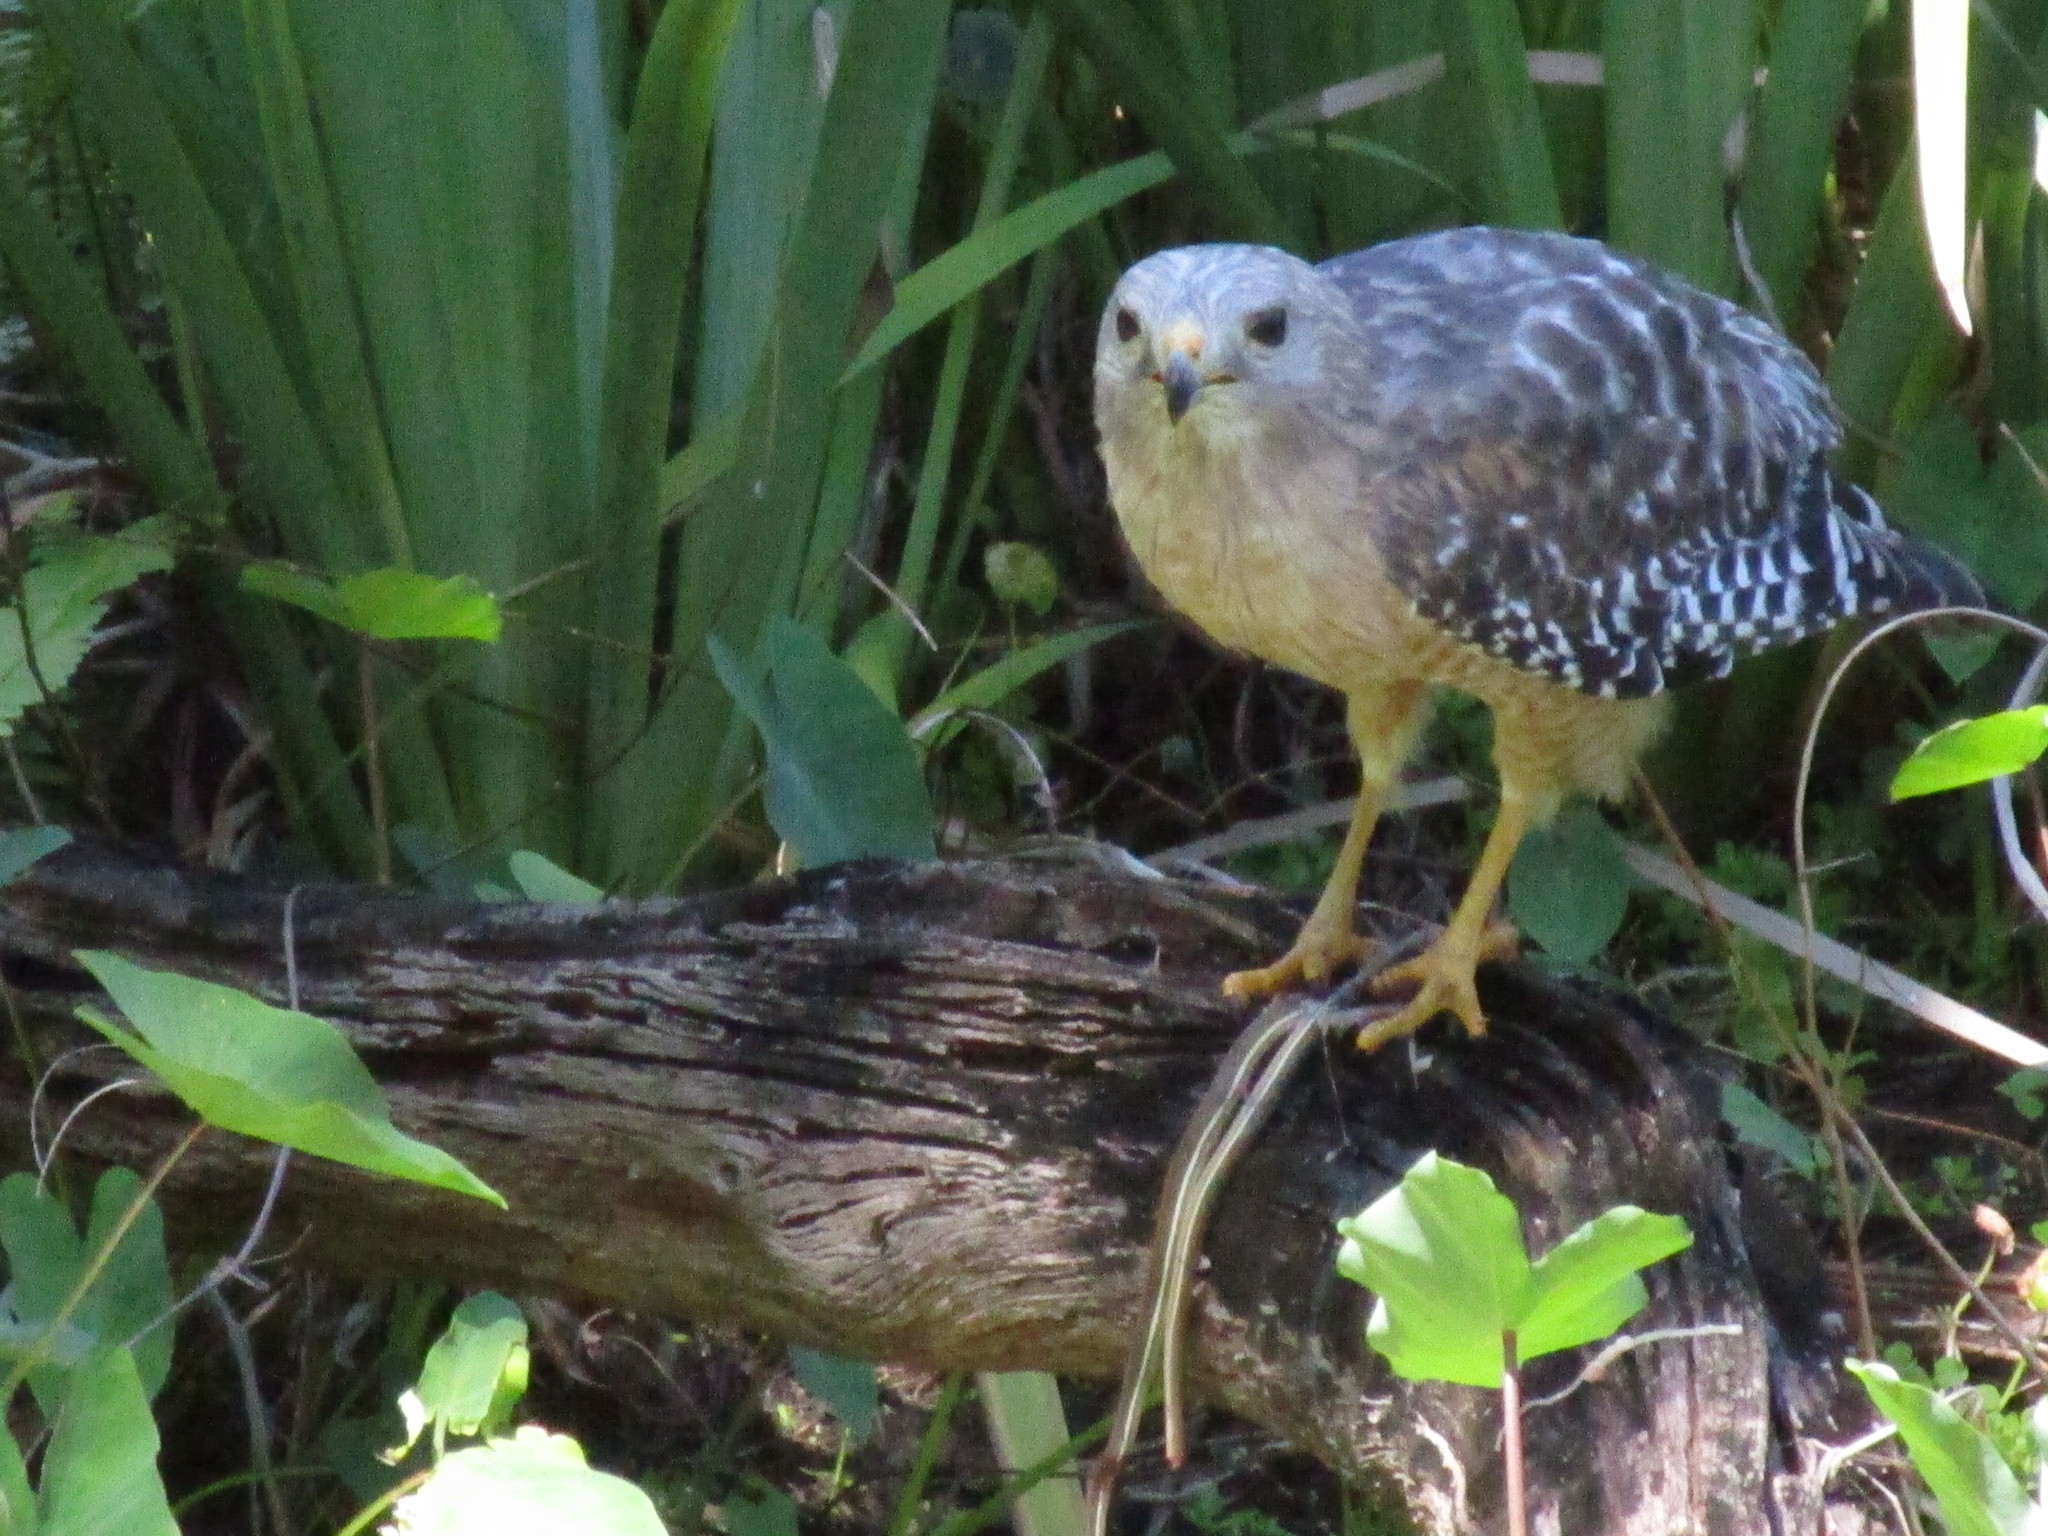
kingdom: Animalia
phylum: Chordata
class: Aves
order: Accipitriformes
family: Accipitridae
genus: Buteo
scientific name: Buteo lineatus
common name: Red-shouldered hawk
